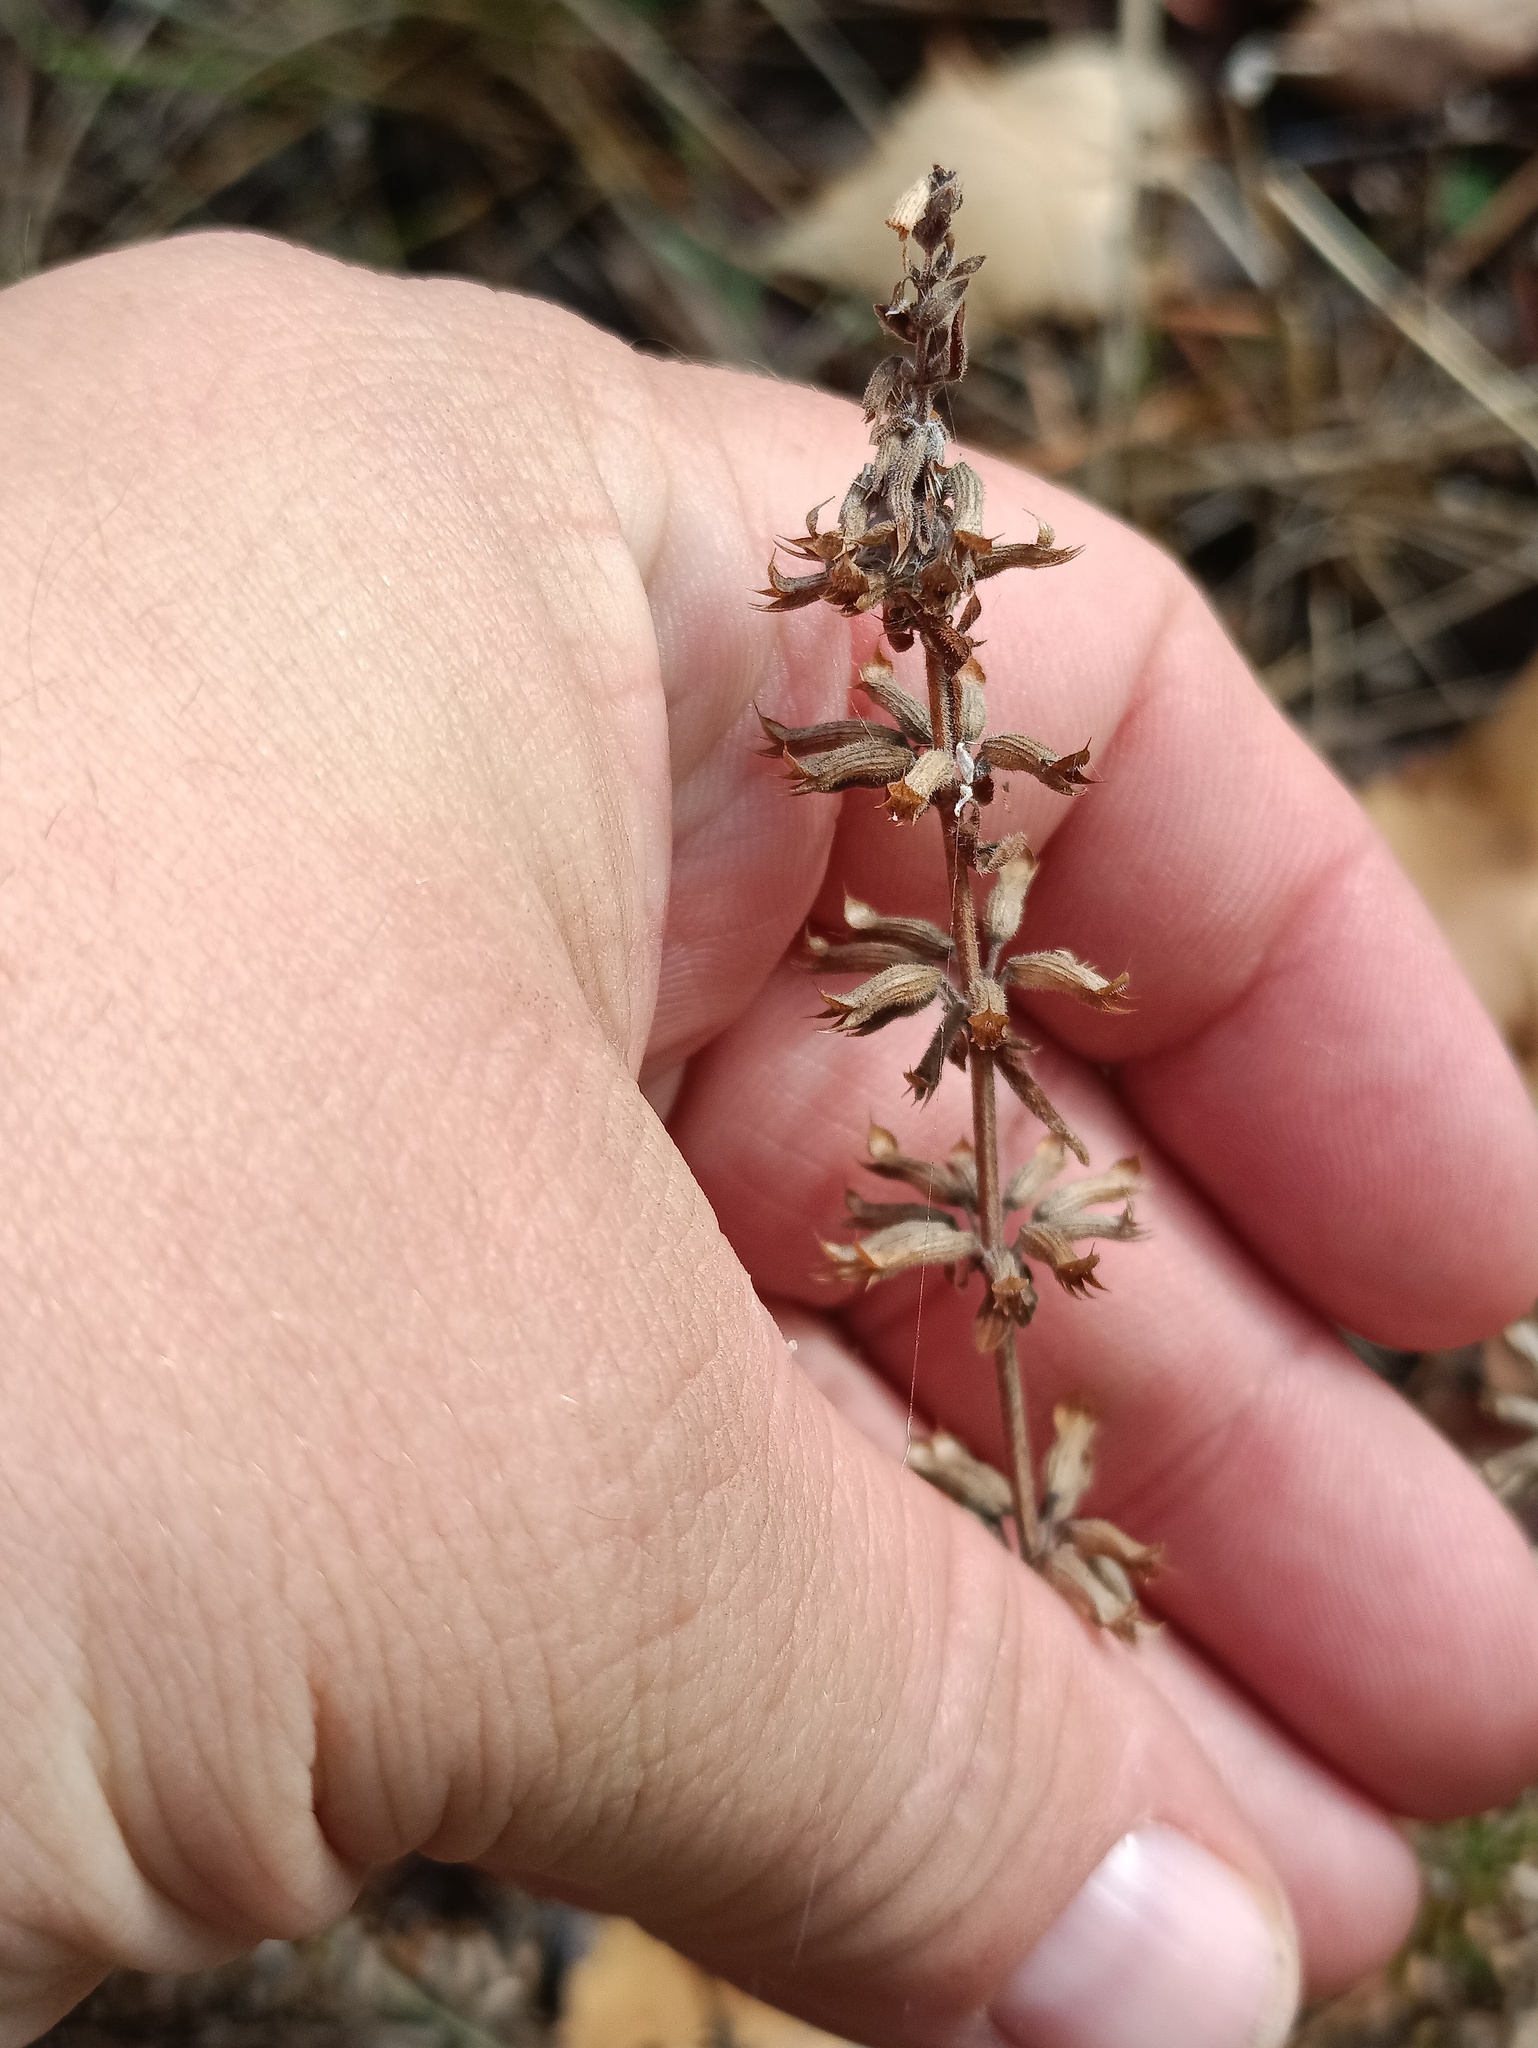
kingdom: Plantae
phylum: Tracheophyta
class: Magnoliopsida
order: Lamiales
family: Lamiaceae
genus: Dracocephalum
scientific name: Dracocephalum thymiflorum
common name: Thymeleaf dragonhead
